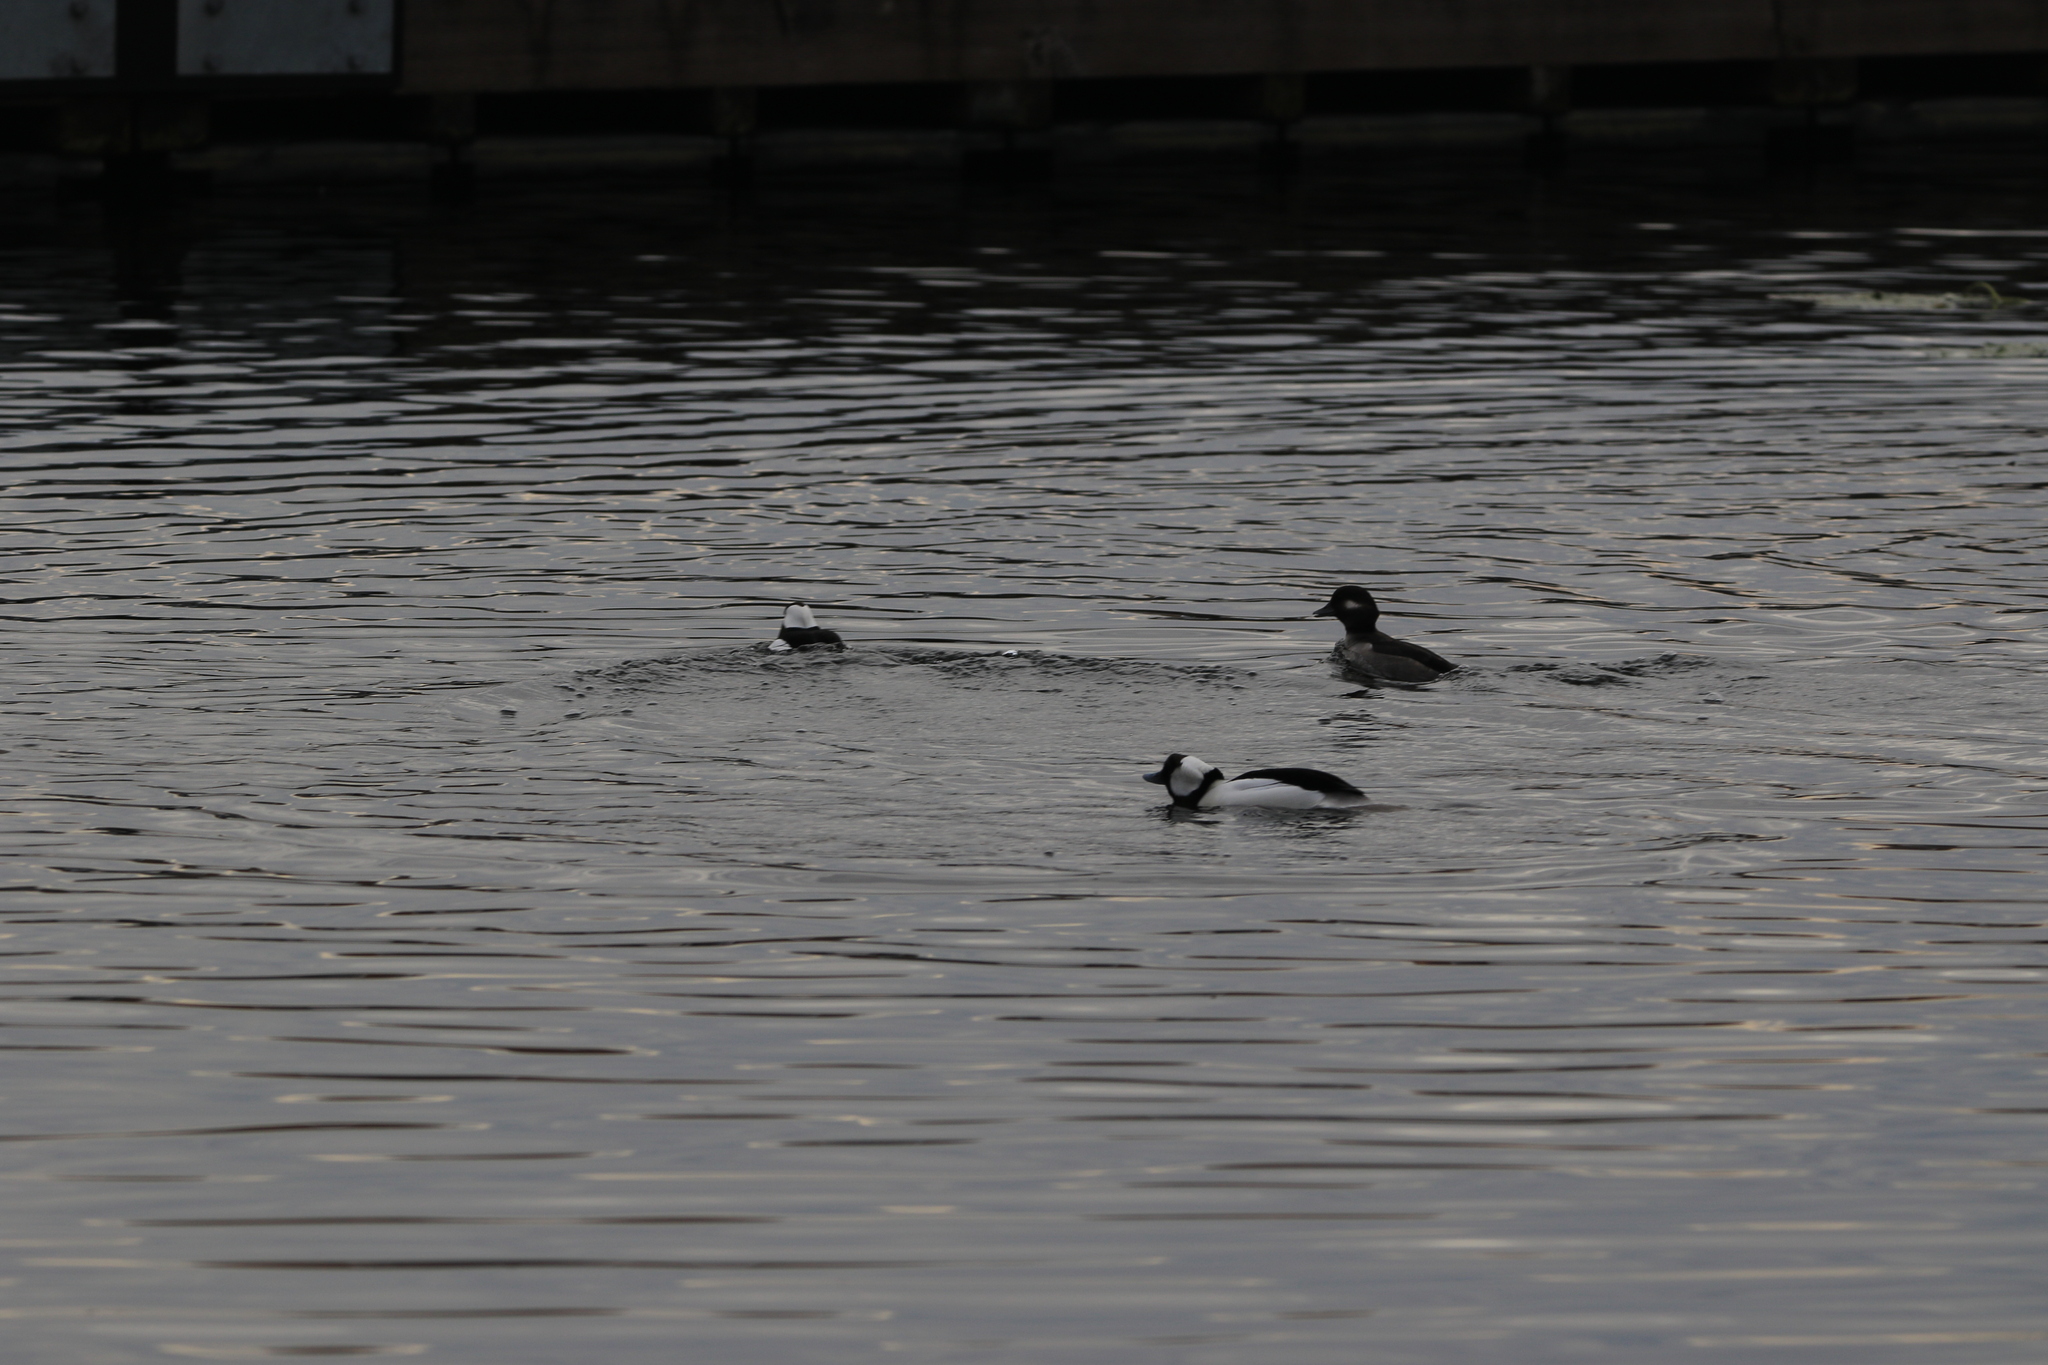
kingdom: Animalia
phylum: Chordata
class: Aves
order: Anseriformes
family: Anatidae
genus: Bucephala
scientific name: Bucephala albeola
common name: Bufflehead
